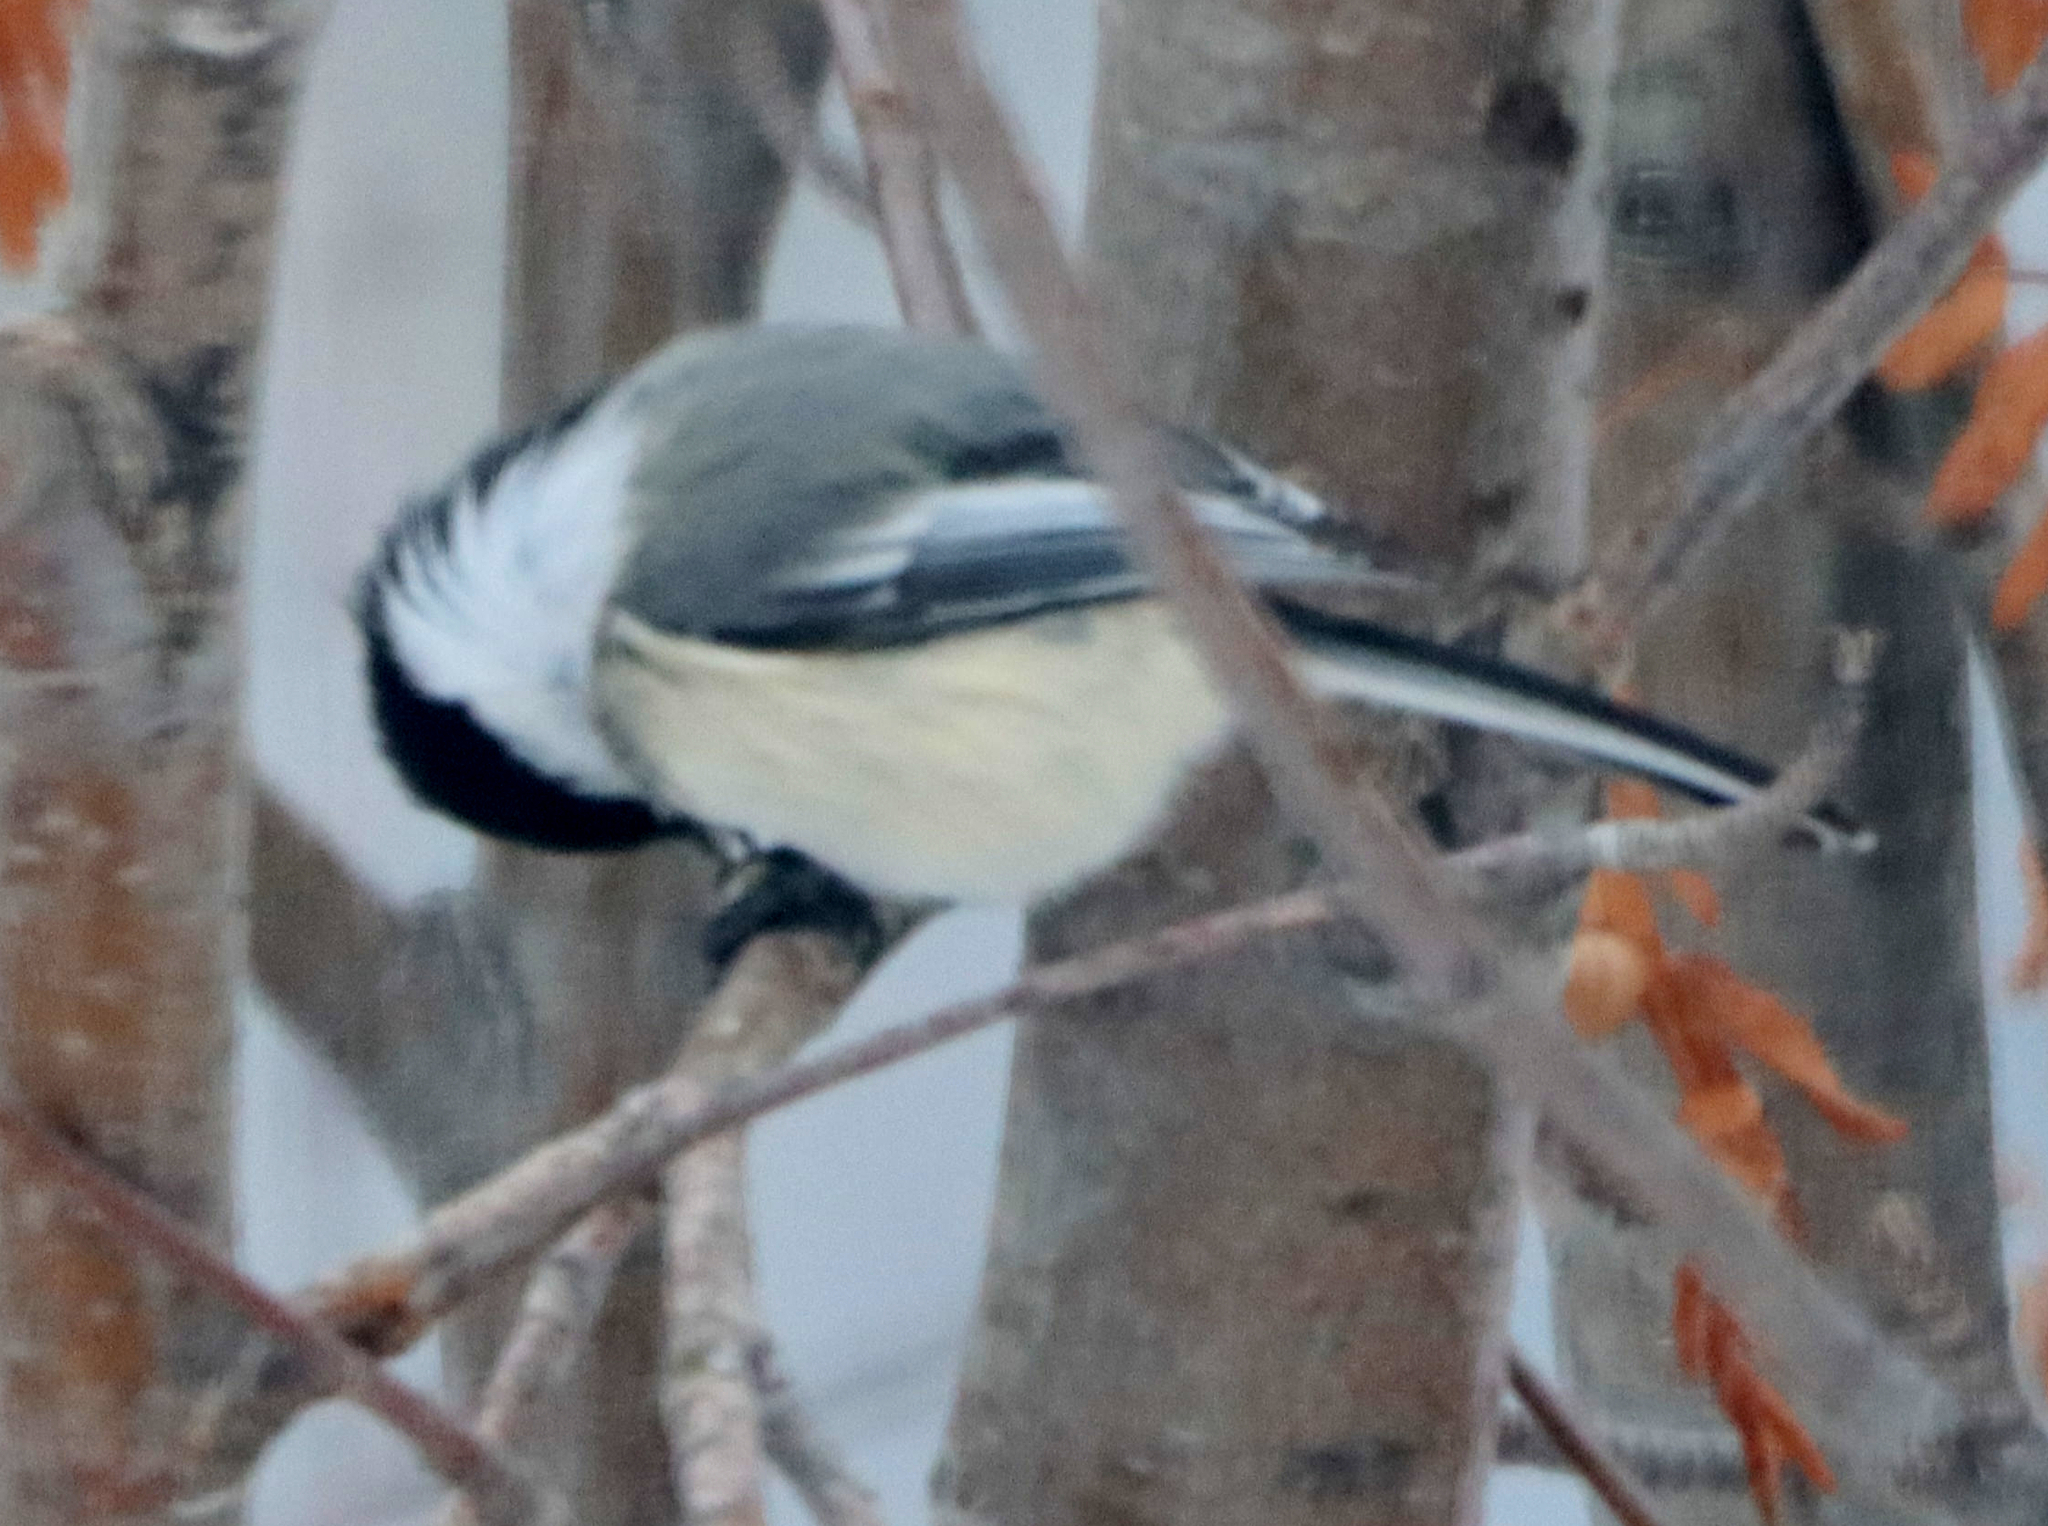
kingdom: Animalia
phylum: Chordata
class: Aves
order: Passeriformes
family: Paridae
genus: Poecile
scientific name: Poecile atricapillus
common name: Black-capped chickadee
